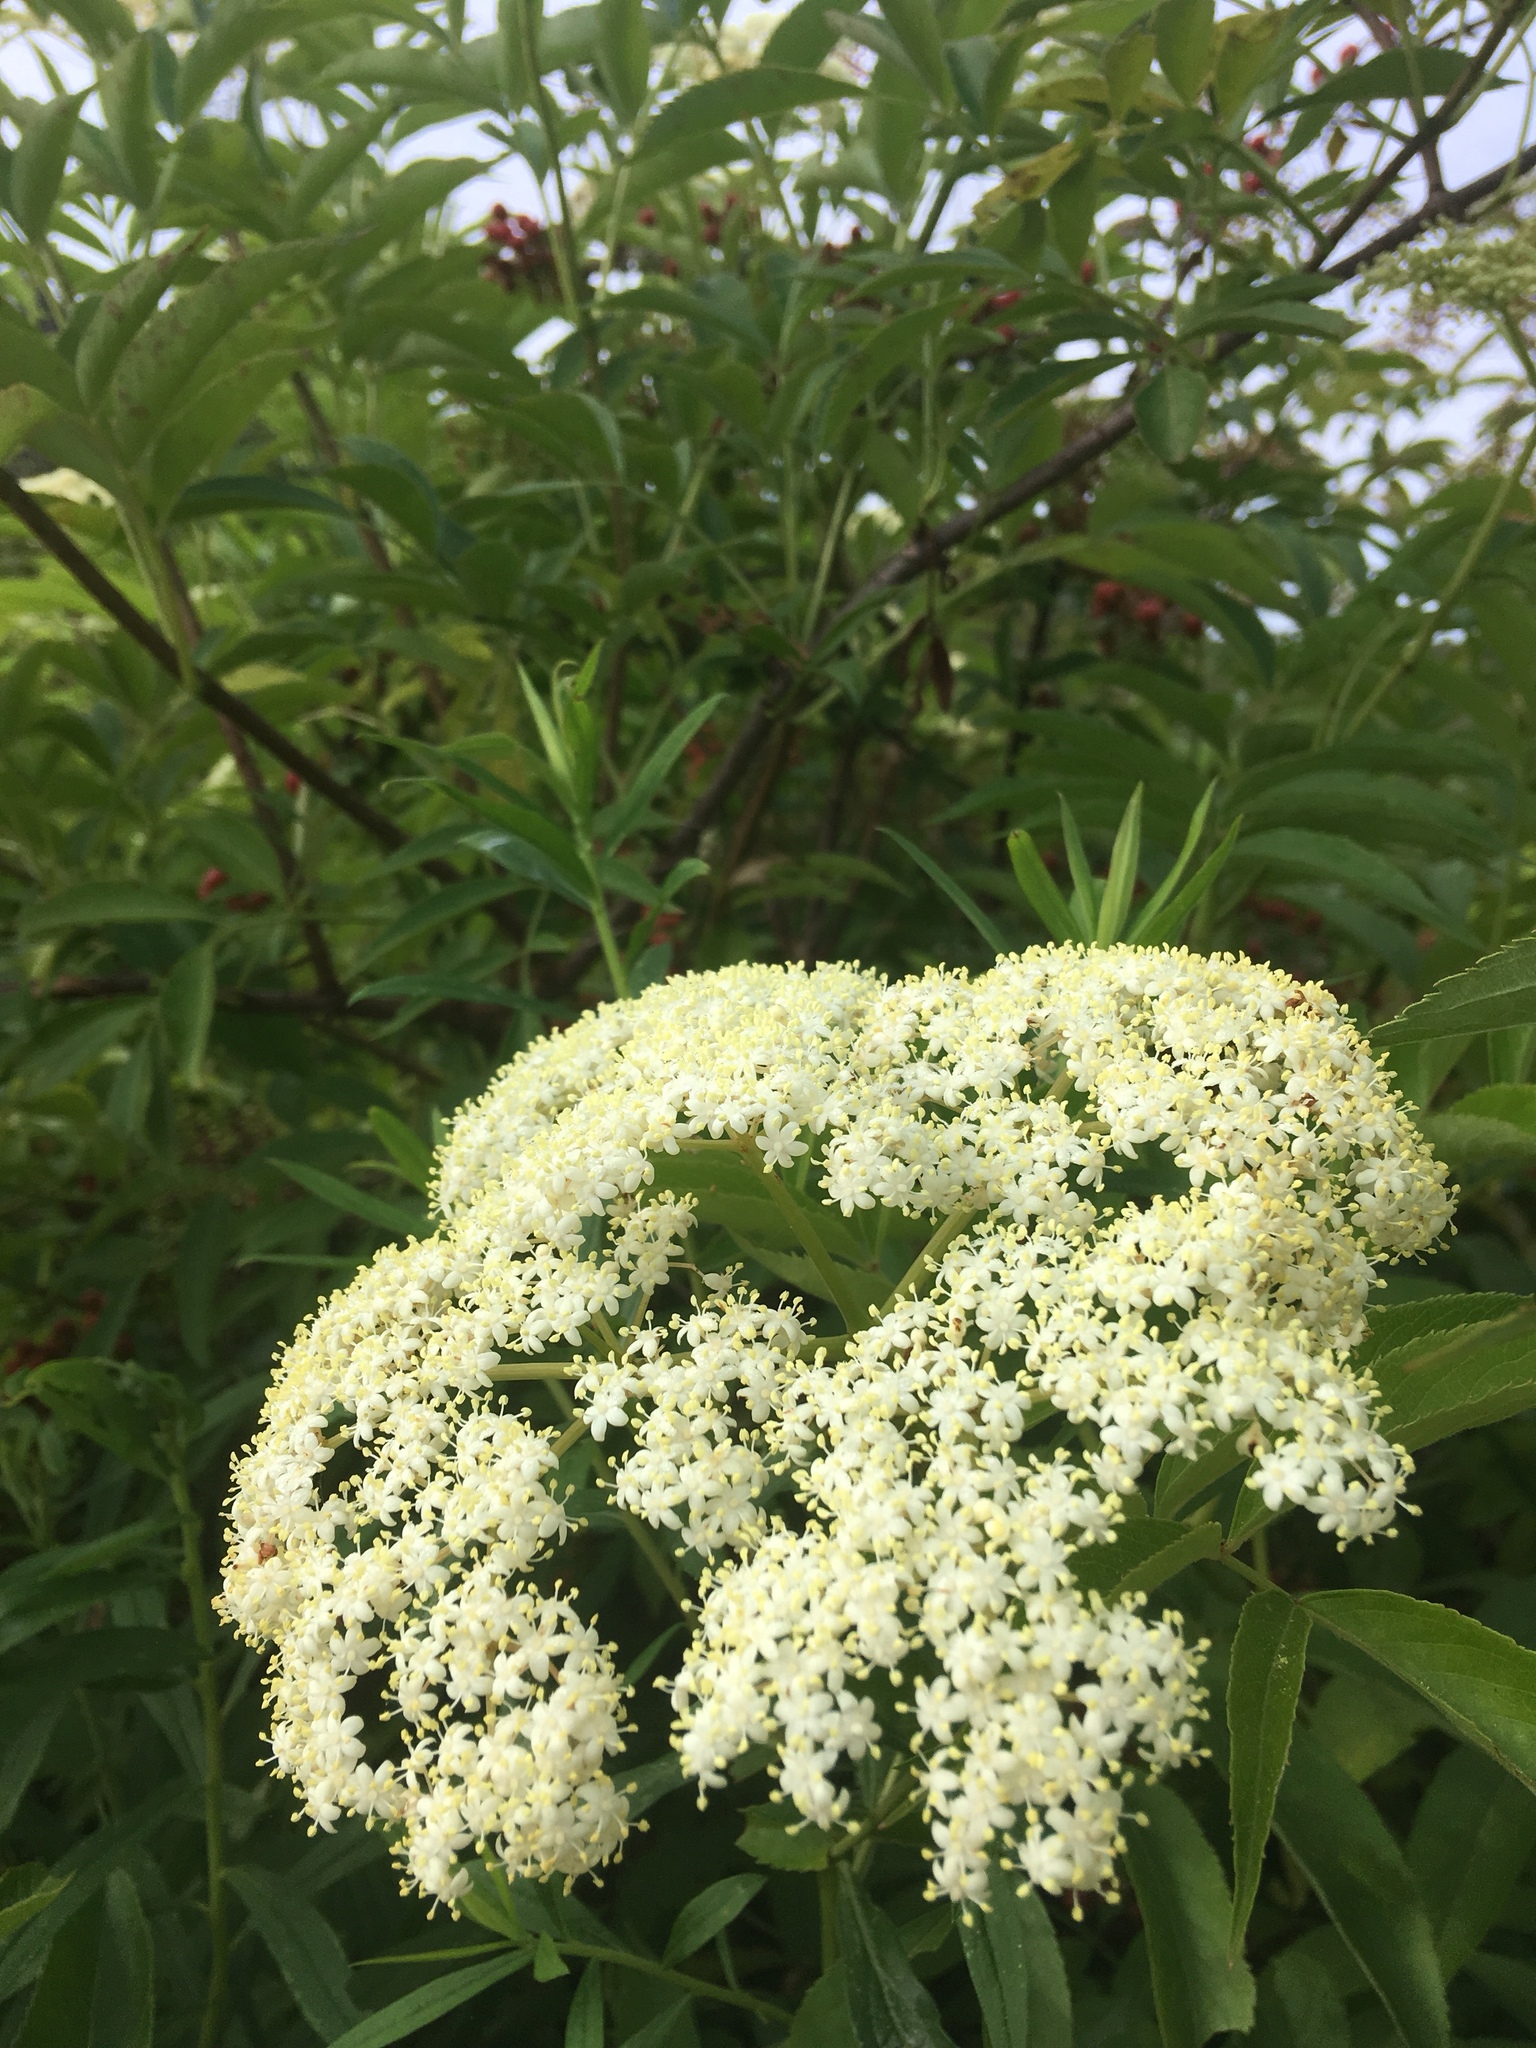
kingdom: Plantae
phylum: Tracheophyta
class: Magnoliopsida
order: Dipsacales
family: Viburnaceae
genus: Sambucus
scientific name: Sambucus canadensis
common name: American elder
